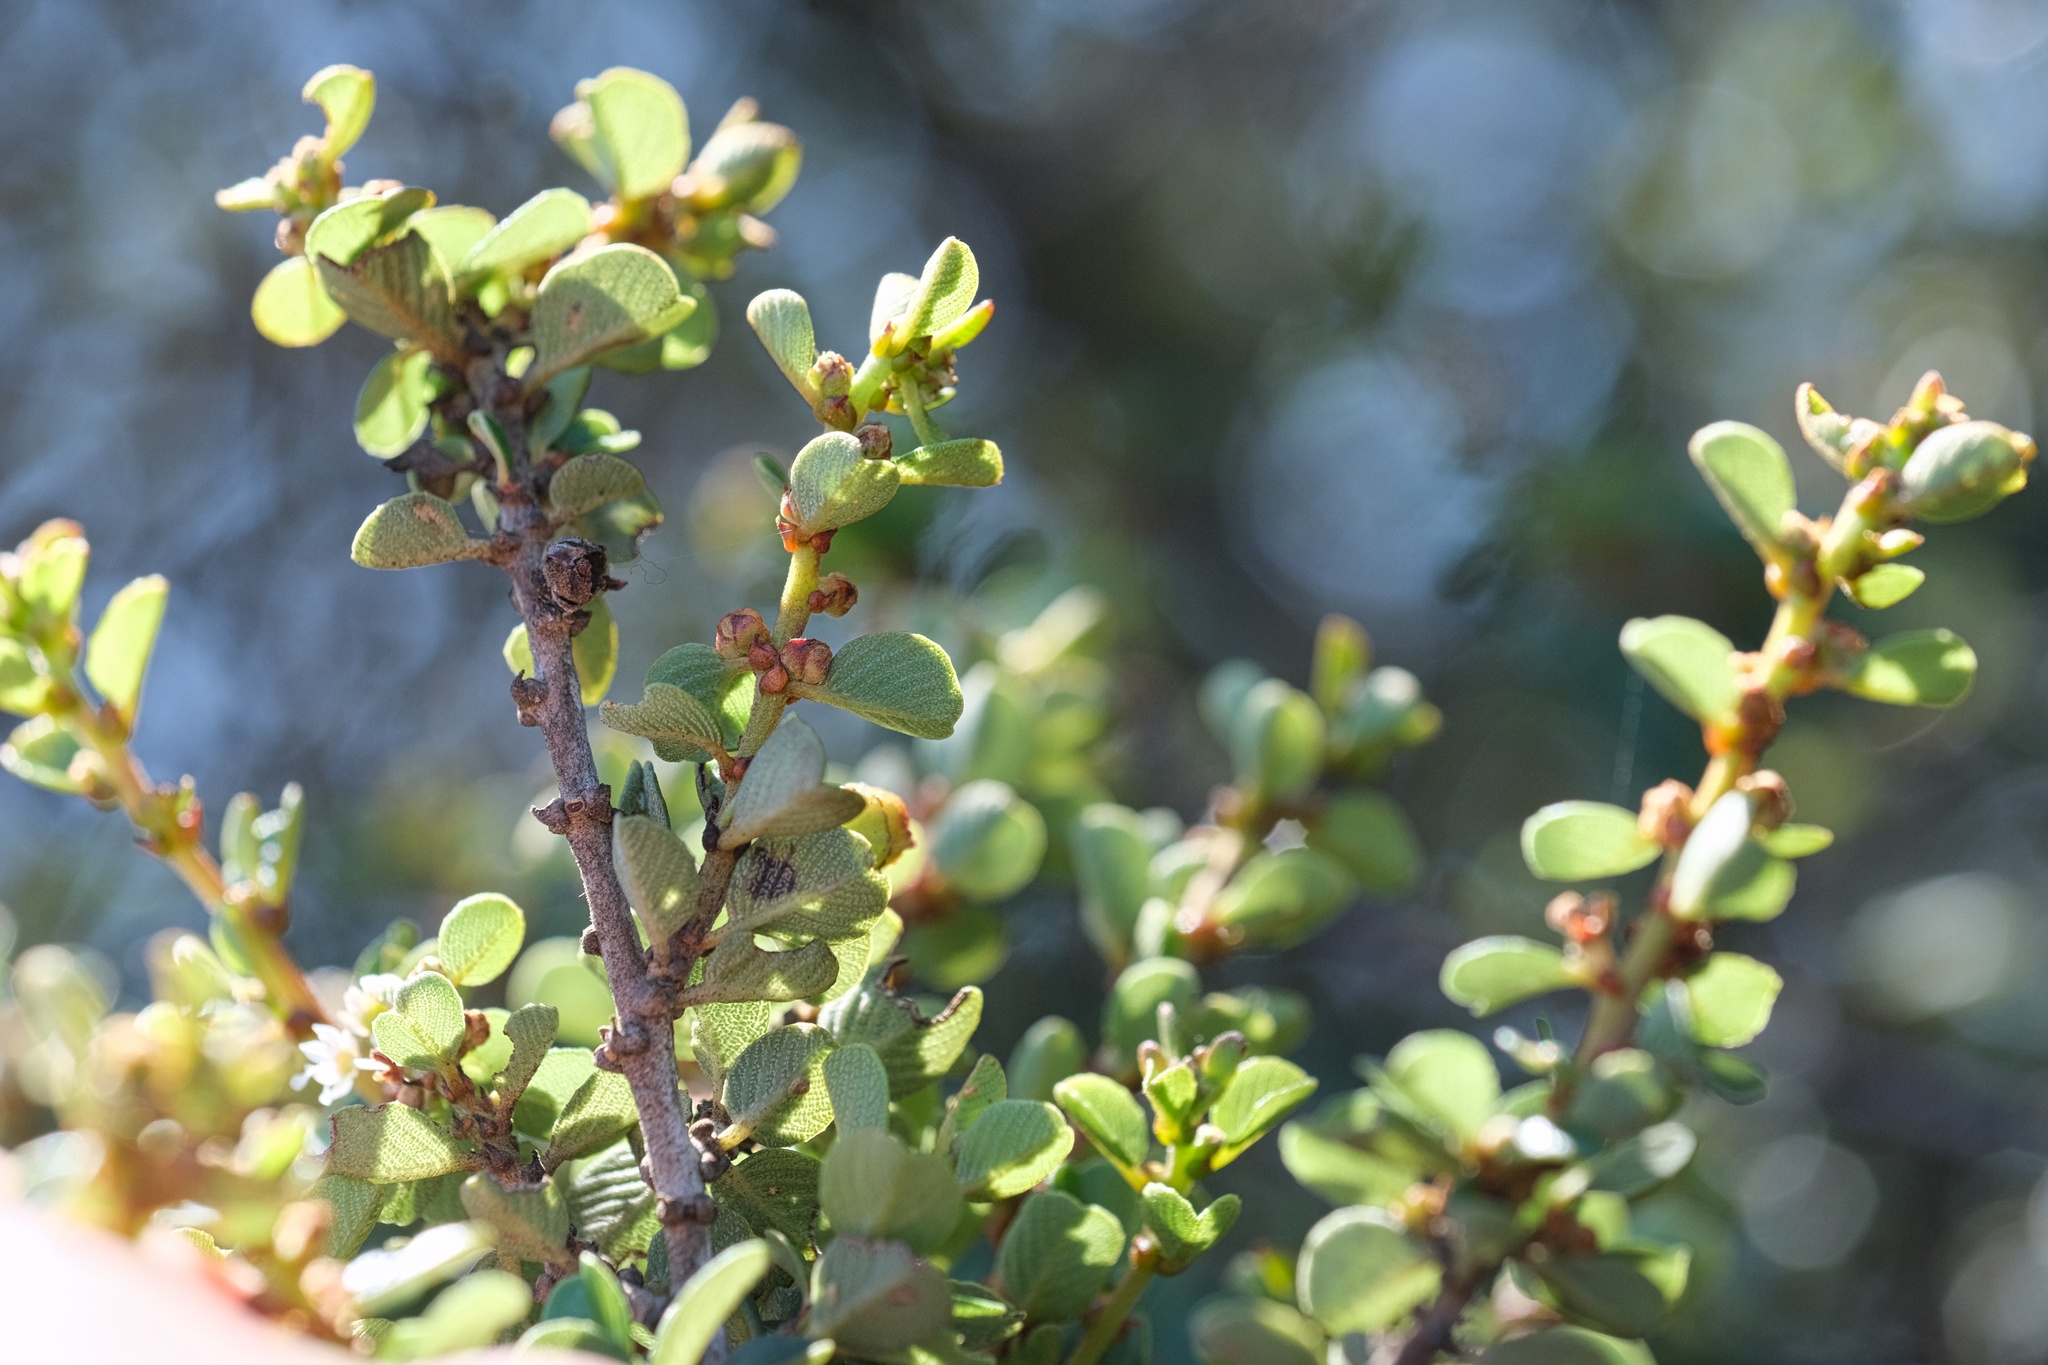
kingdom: Plantae
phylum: Tracheophyta
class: Magnoliopsida
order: Rosales
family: Rhamnaceae
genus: Ceanothus
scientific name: Ceanothus verrucosus
